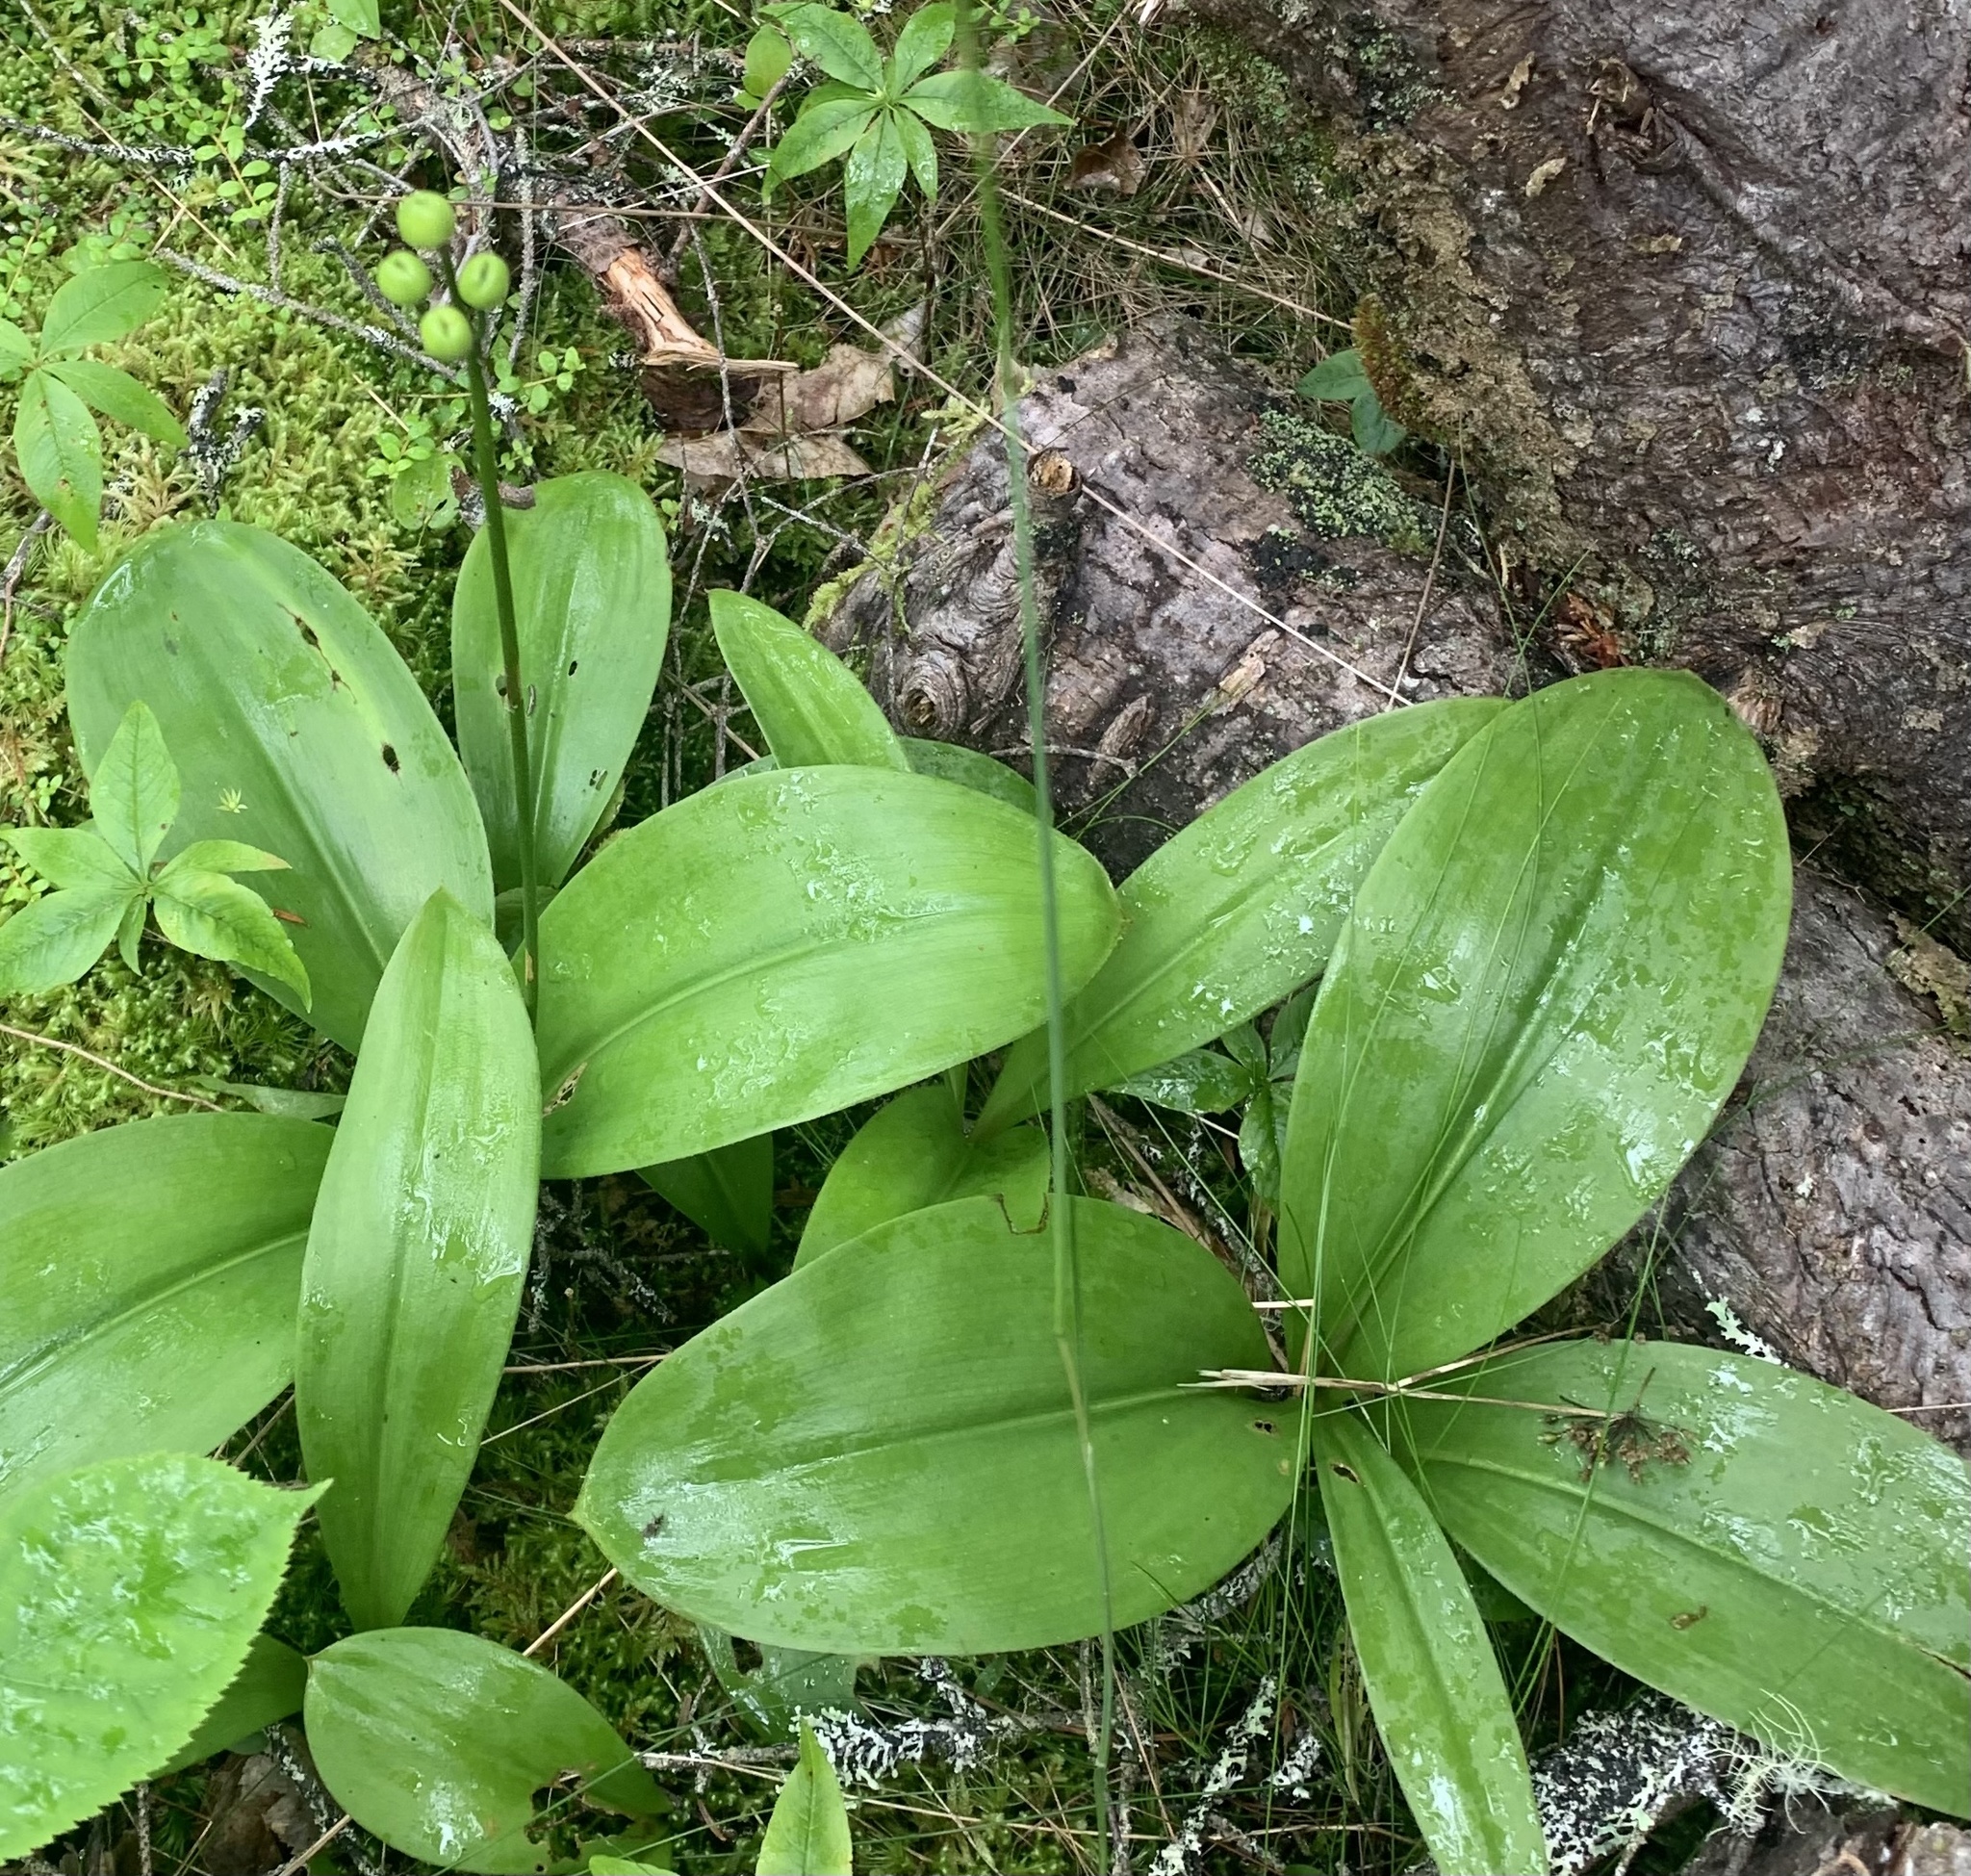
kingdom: Plantae
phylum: Tracheophyta
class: Liliopsida
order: Liliales
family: Liliaceae
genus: Clintonia
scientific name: Clintonia borealis
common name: Yellow clintonia
